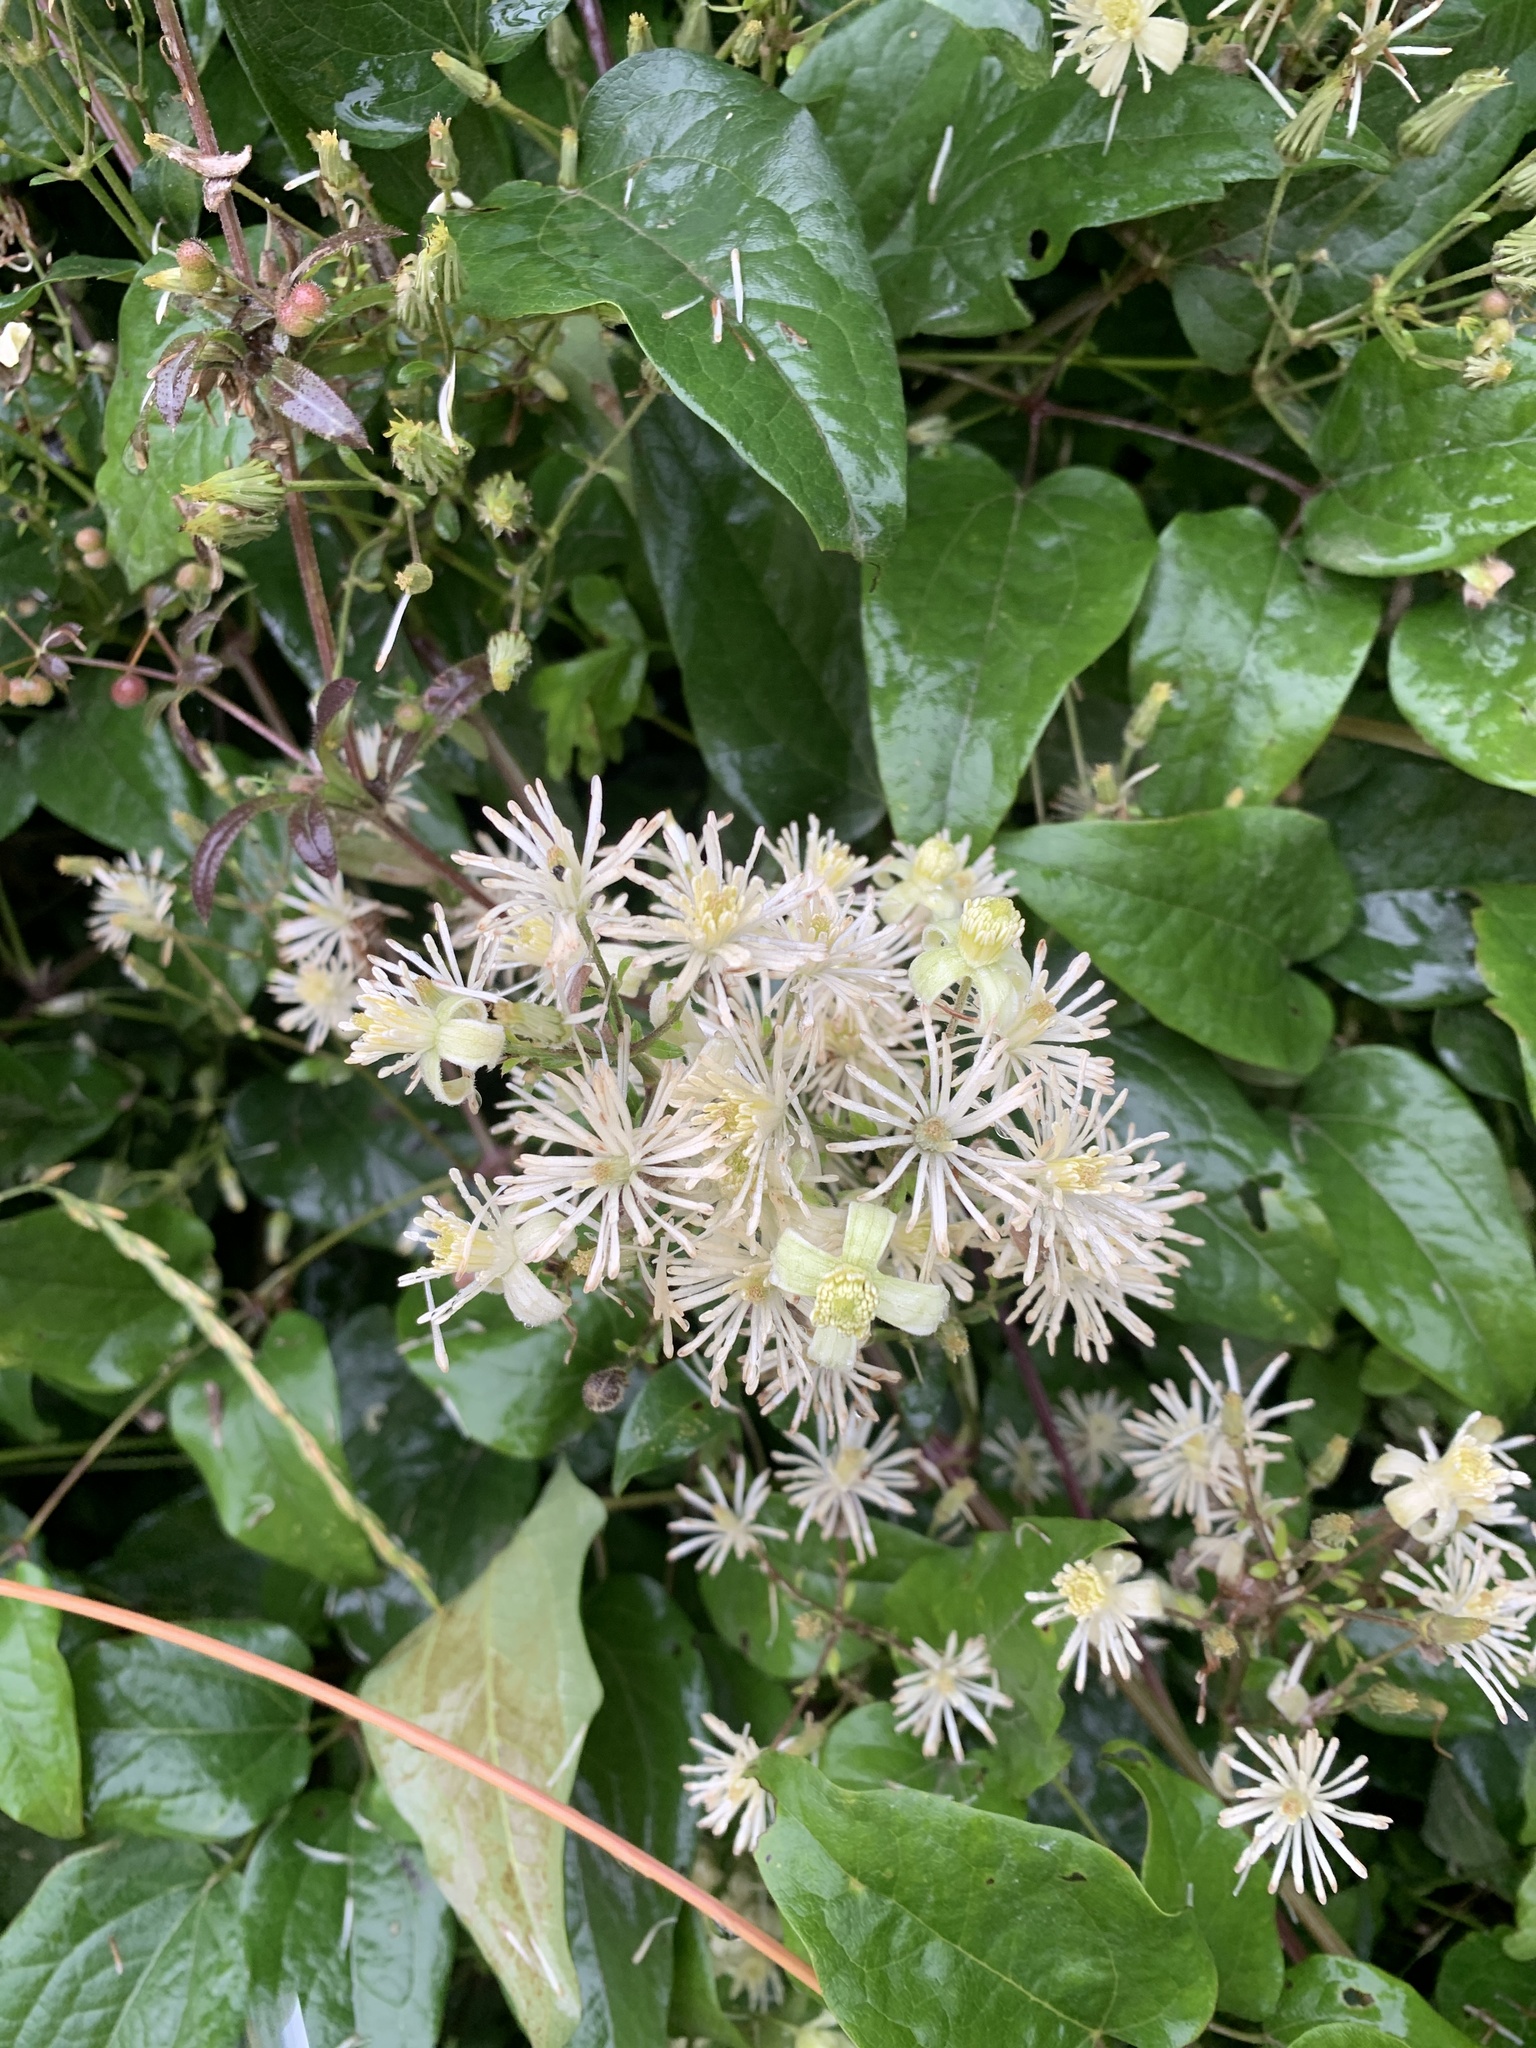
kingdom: Plantae
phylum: Tracheophyta
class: Magnoliopsida
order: Ranunculales
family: Ranunculaceae
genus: Clematis
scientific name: Clematis vitalba
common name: Evergreen clematis
